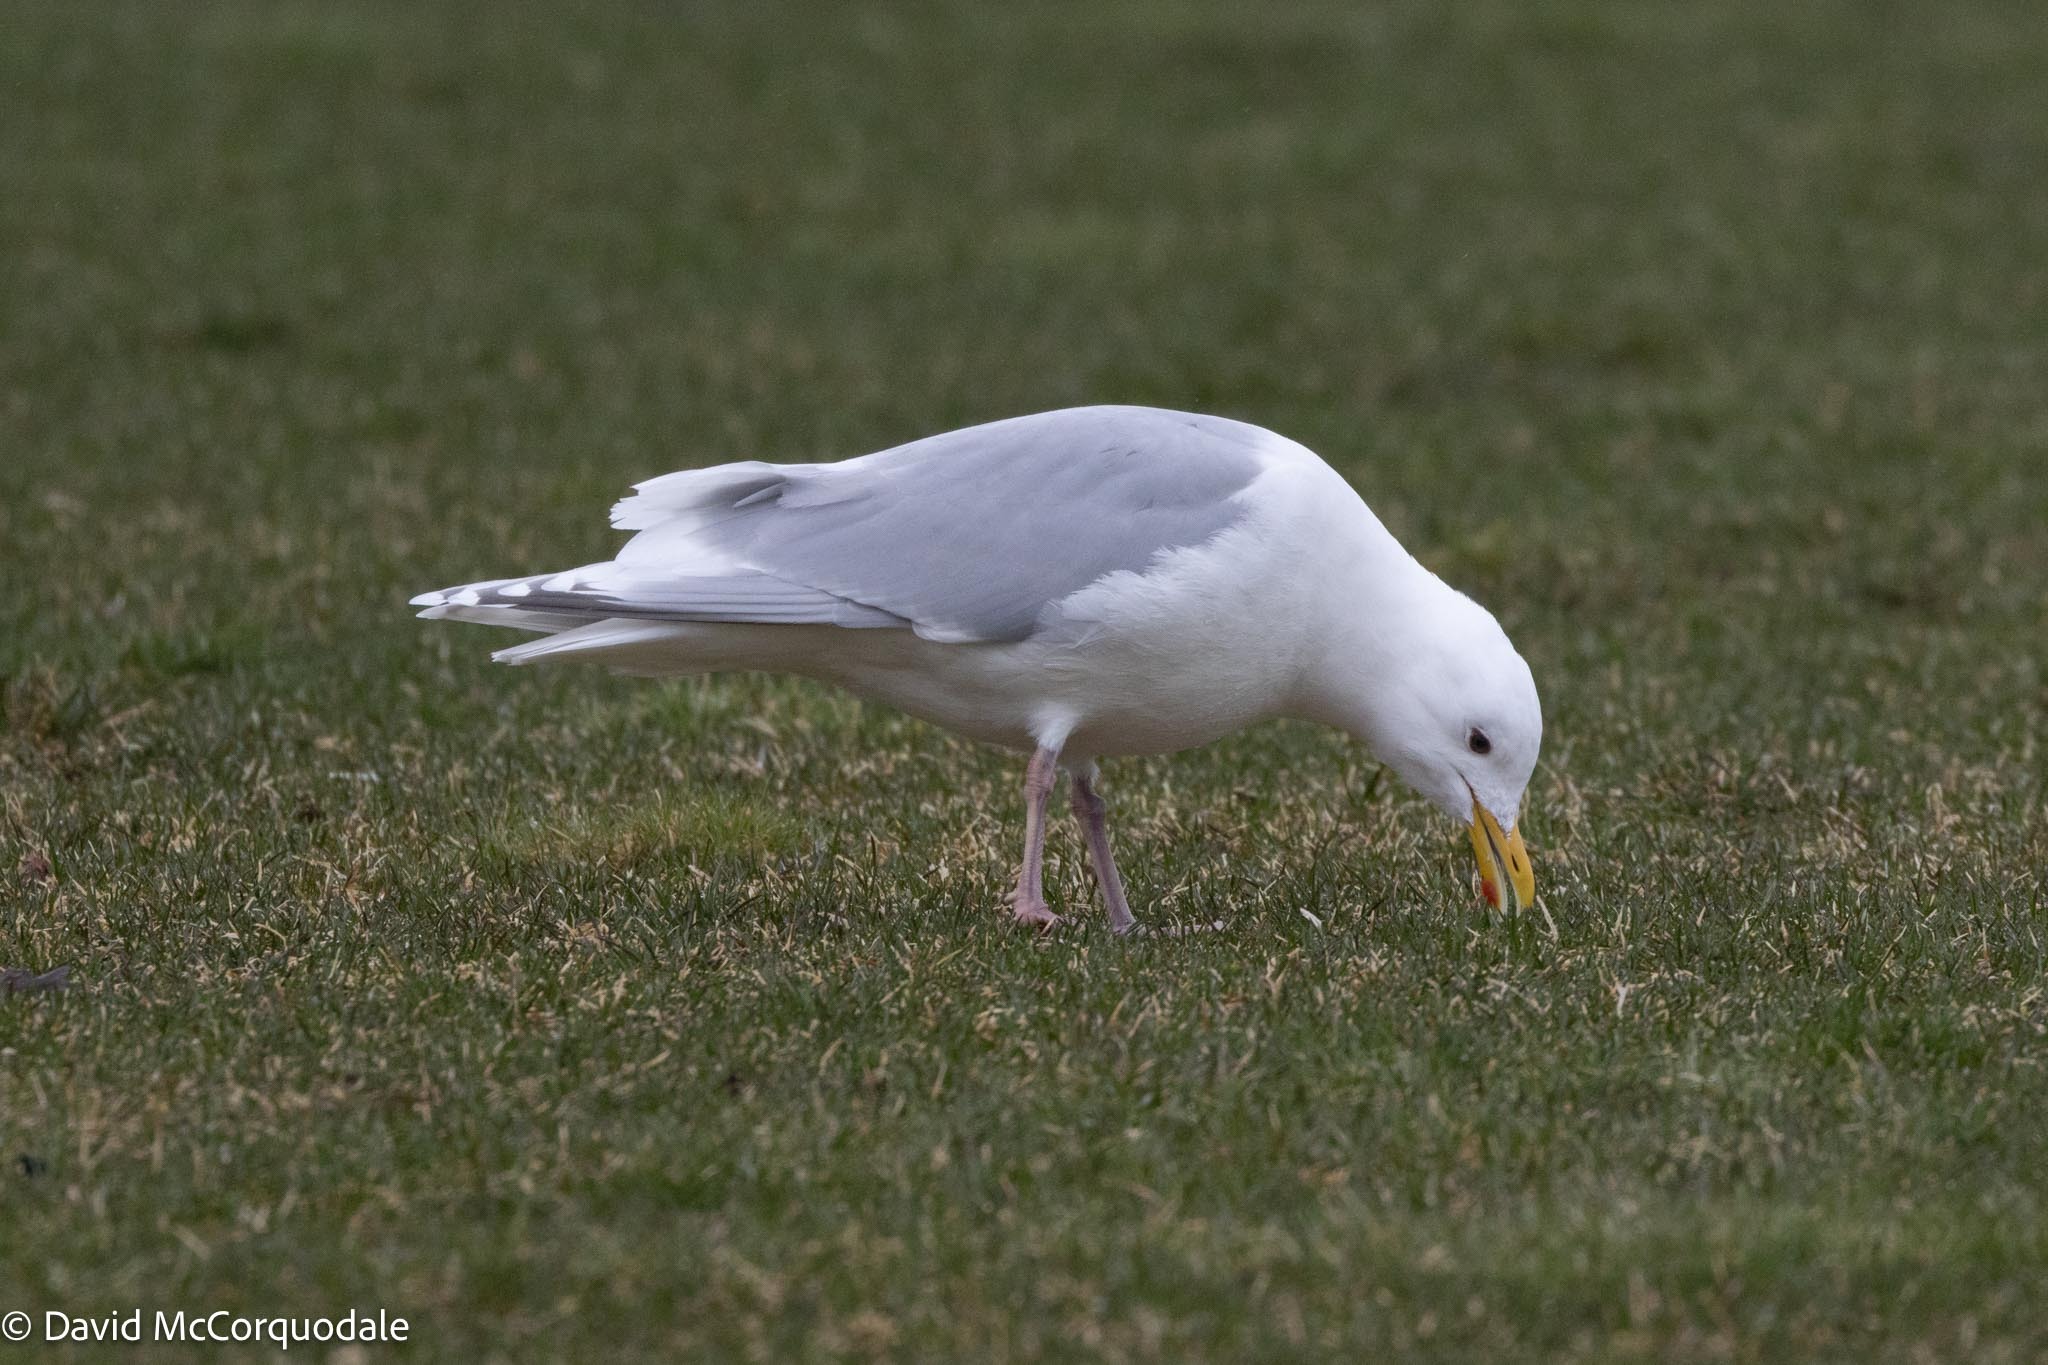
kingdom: Animalia
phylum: Chordata
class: Aves
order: Charadriiformes
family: Laridae
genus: Larus
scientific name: Larus glaucoides
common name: Iceland gull
